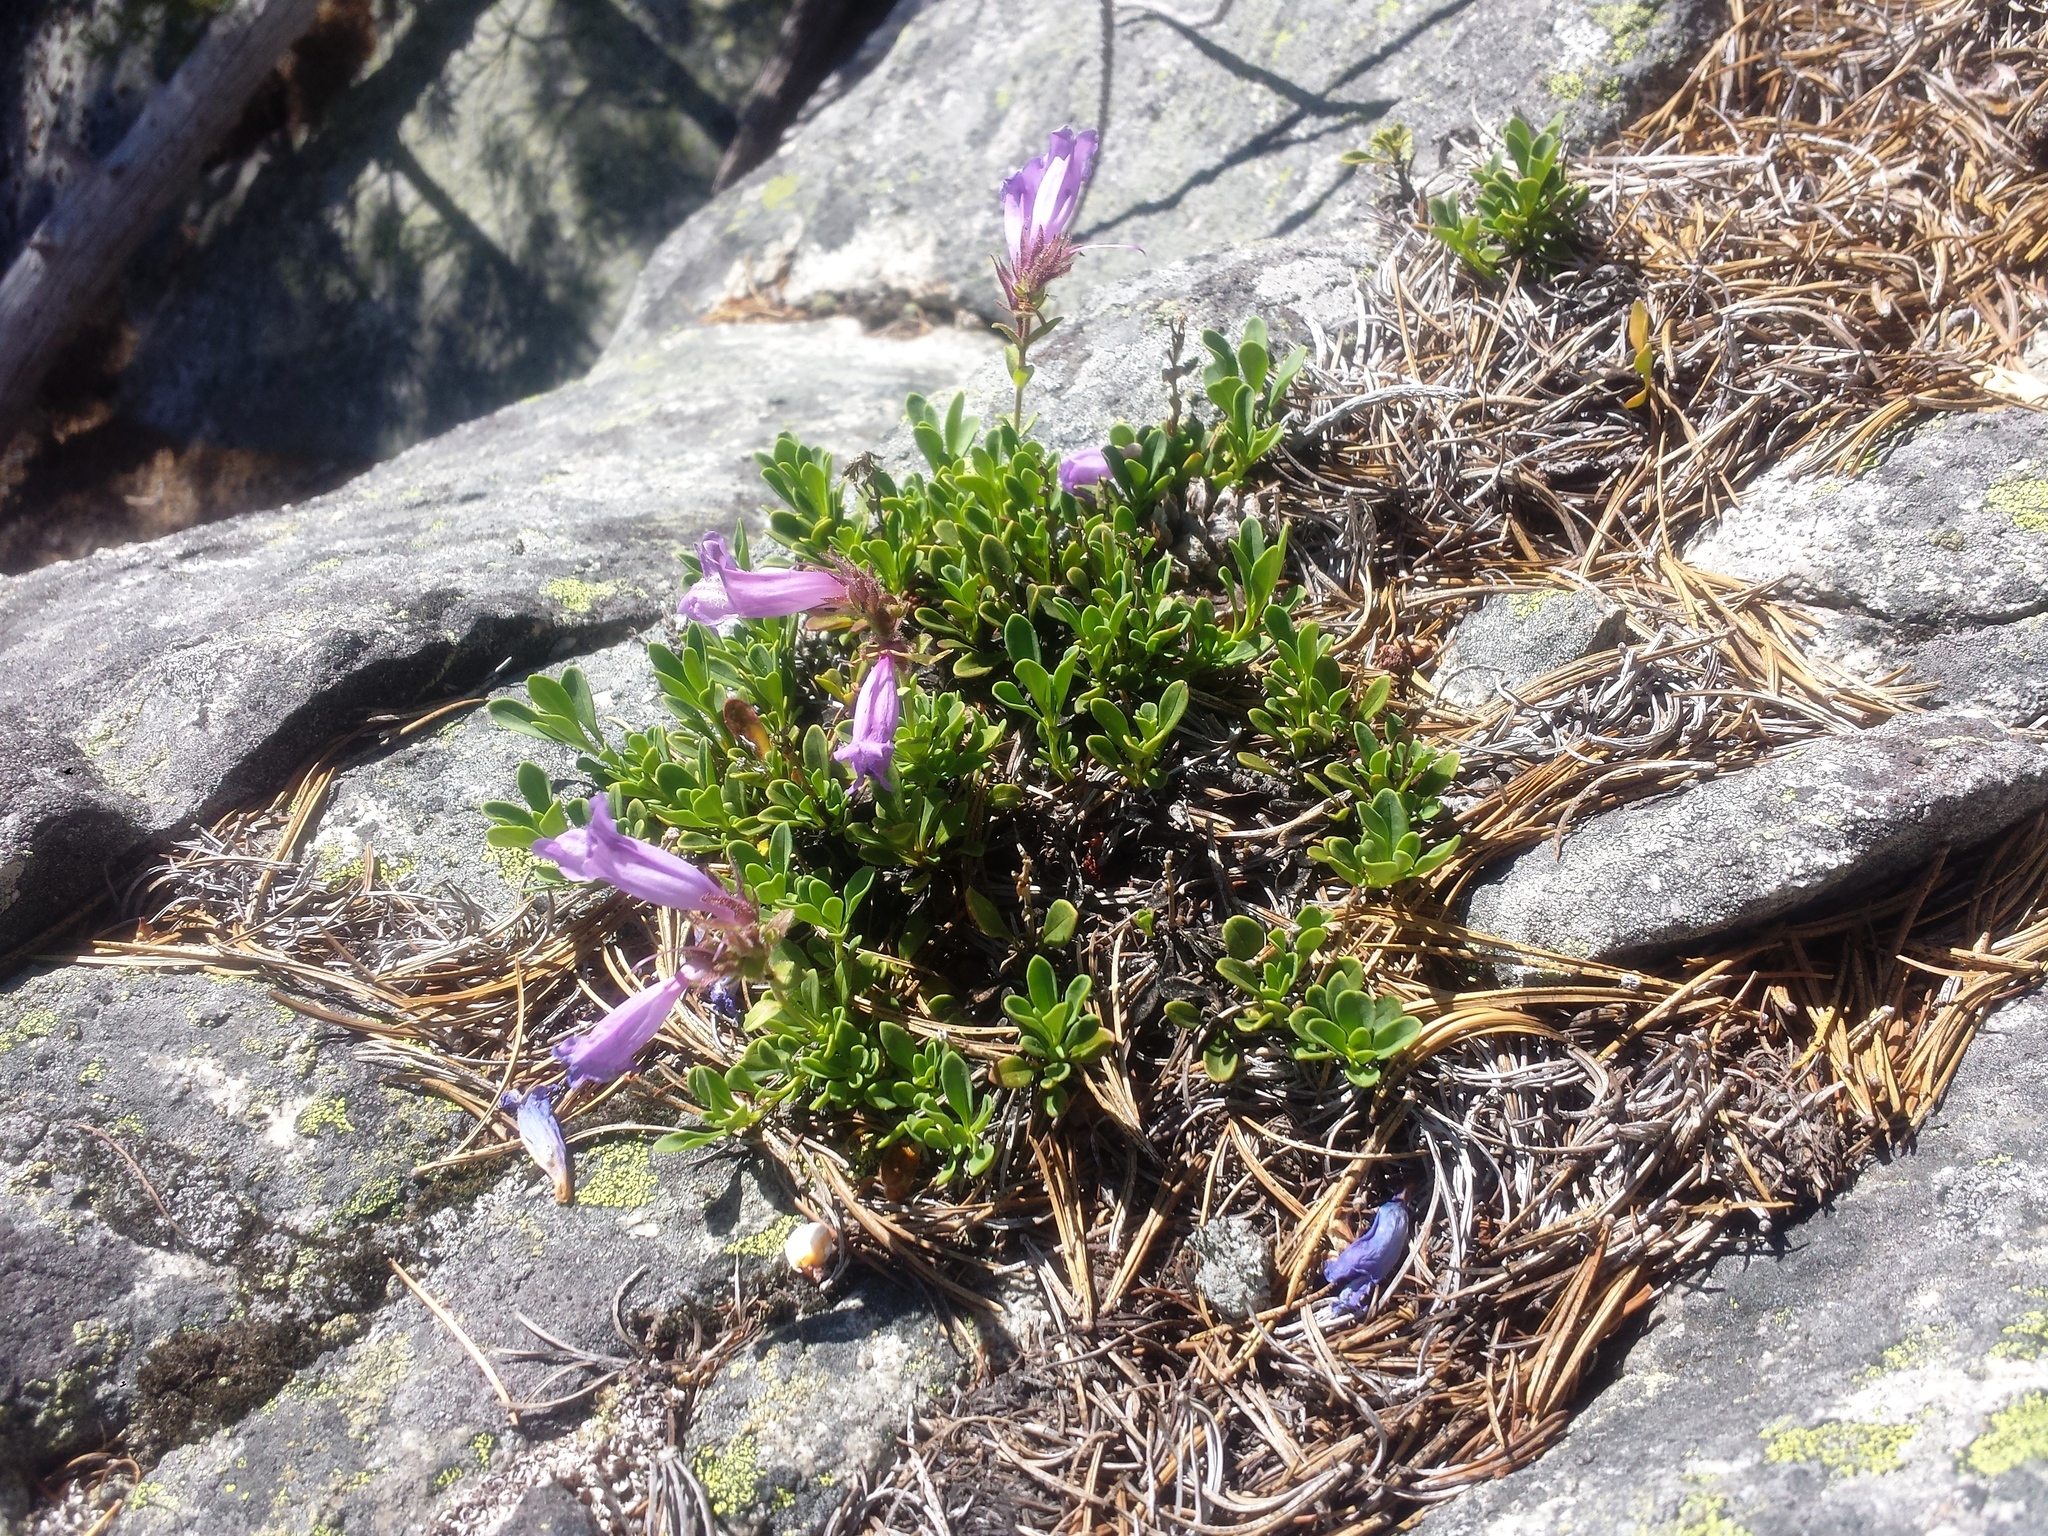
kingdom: Plantae
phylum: Tracheophyta
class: Magnoliopsida
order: Lamiales
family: Plantaginaceae
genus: Penstemon
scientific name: Penstemon davidsonii
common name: Davidson's penstemon
